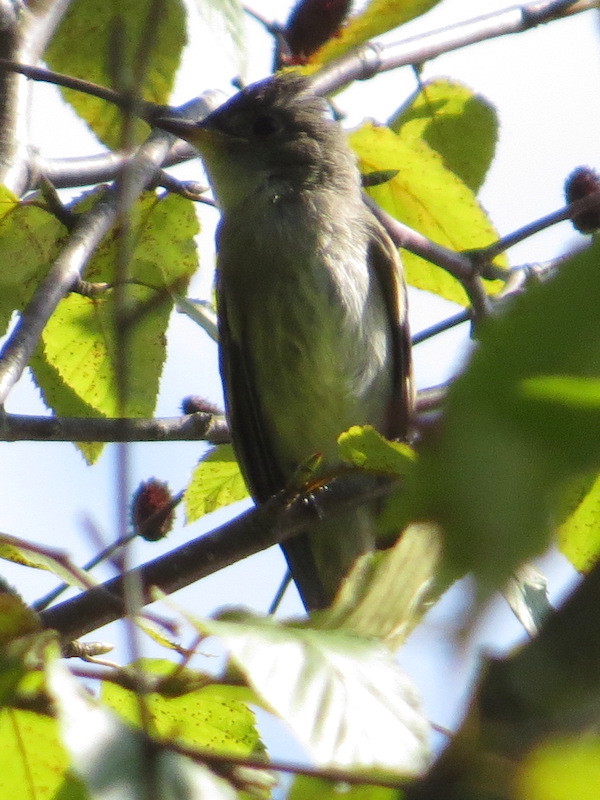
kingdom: Animalia
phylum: Chordata
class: Aves
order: Passeriformes
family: Tyrannidae
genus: Contopus
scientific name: Contopus virens
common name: Eastern wood-pewee
